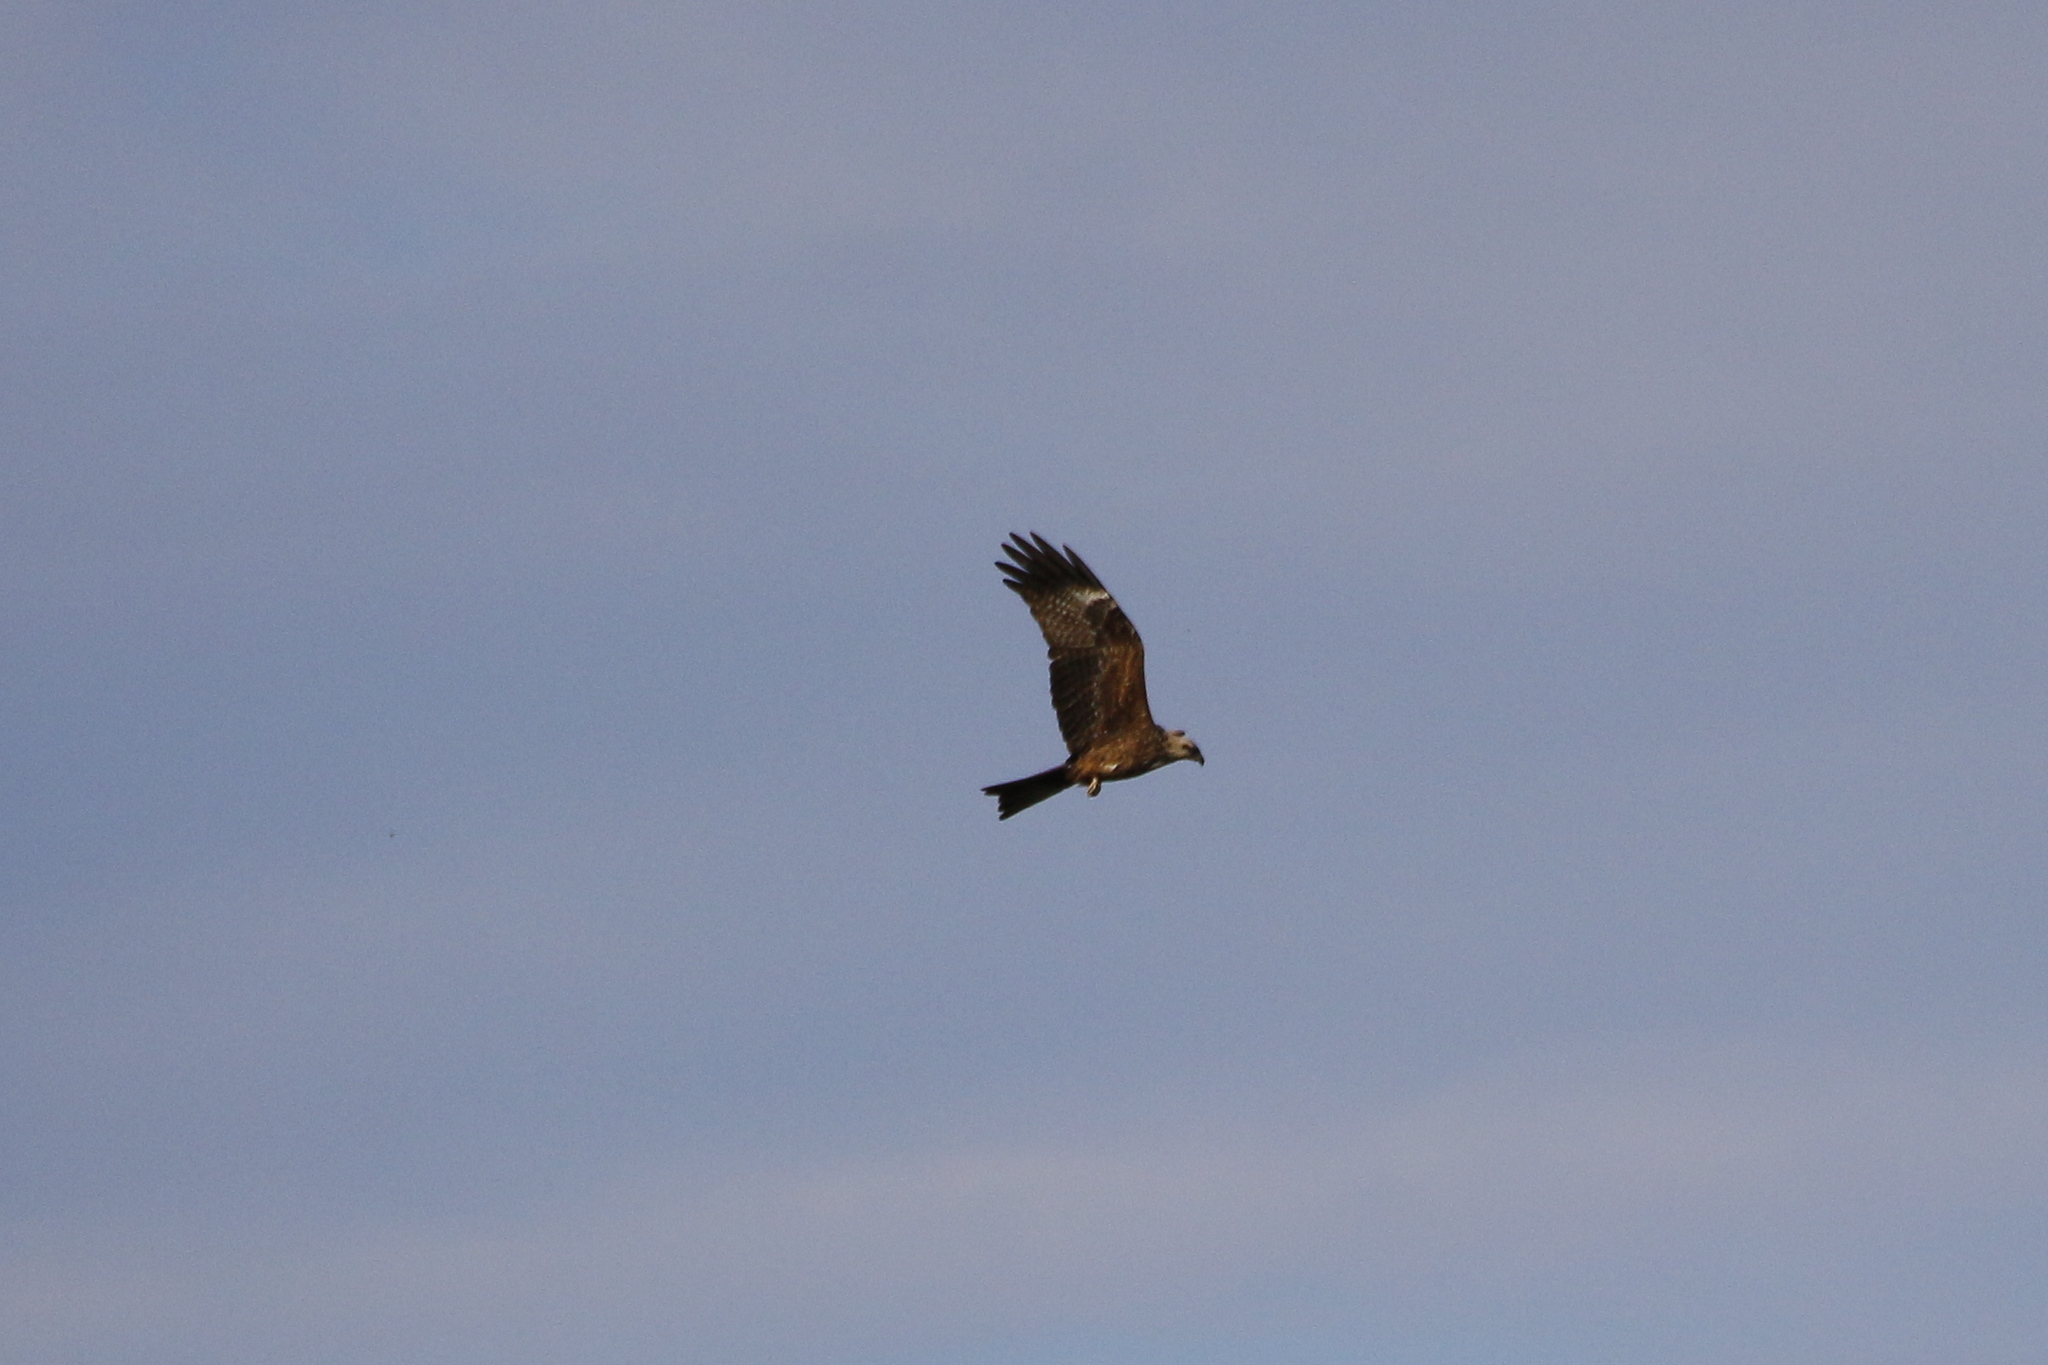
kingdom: Animalia
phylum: Chordata
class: Aves
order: Accipitriformes
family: Accipitridae
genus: Milvus
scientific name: Milvus migrans
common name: Black kite
